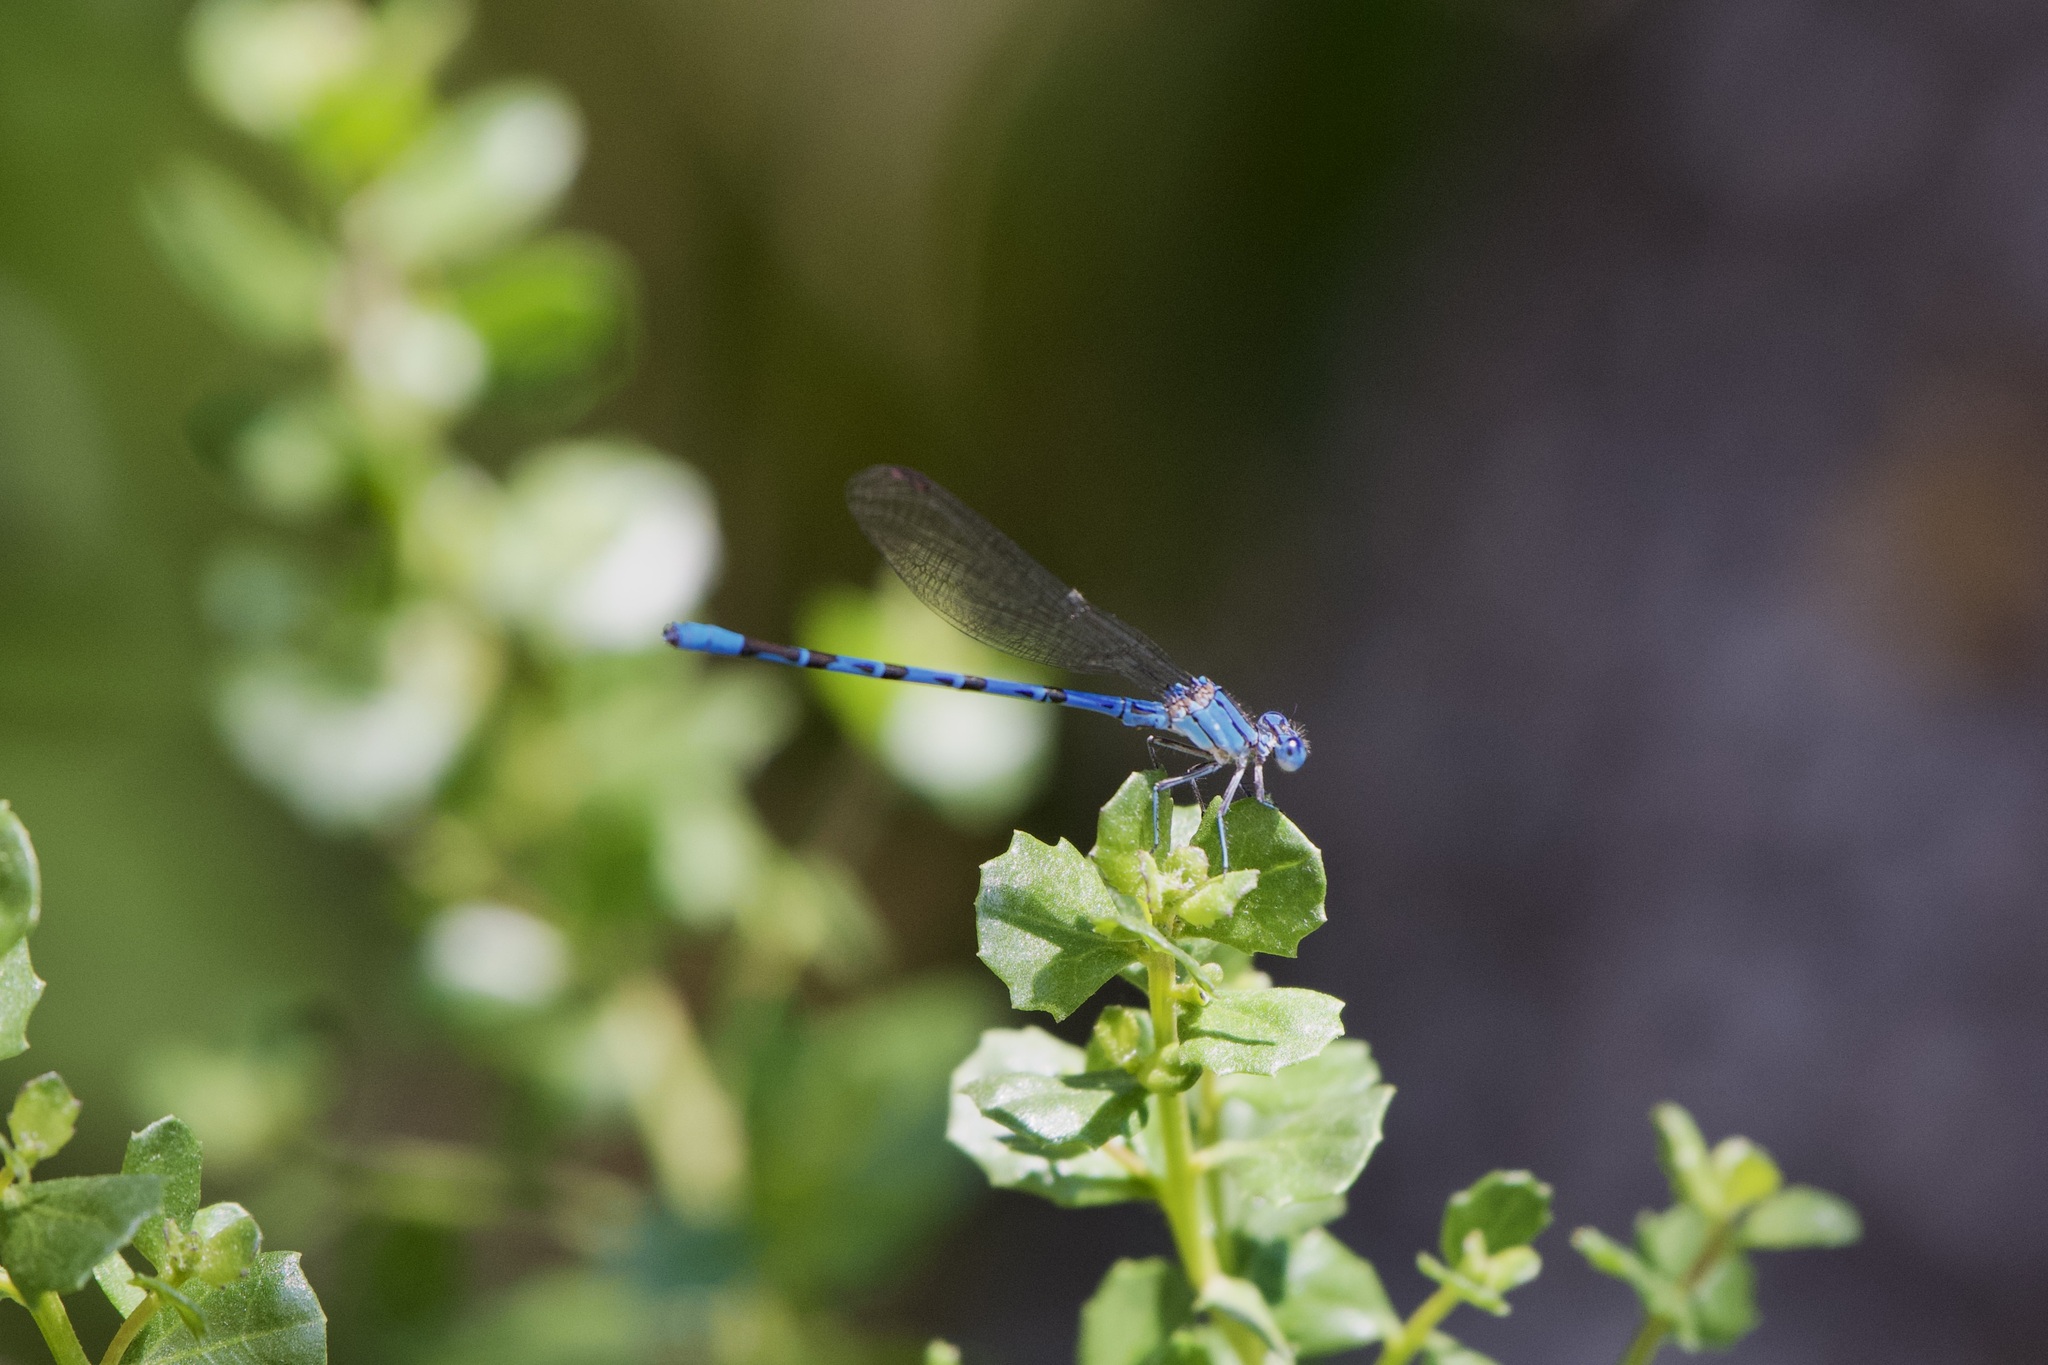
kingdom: Animalia
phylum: Arthropoda
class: Insecta
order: Odonata
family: Coenagrionidae
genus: Argia
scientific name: Argia vivida
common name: Vivid dancer
